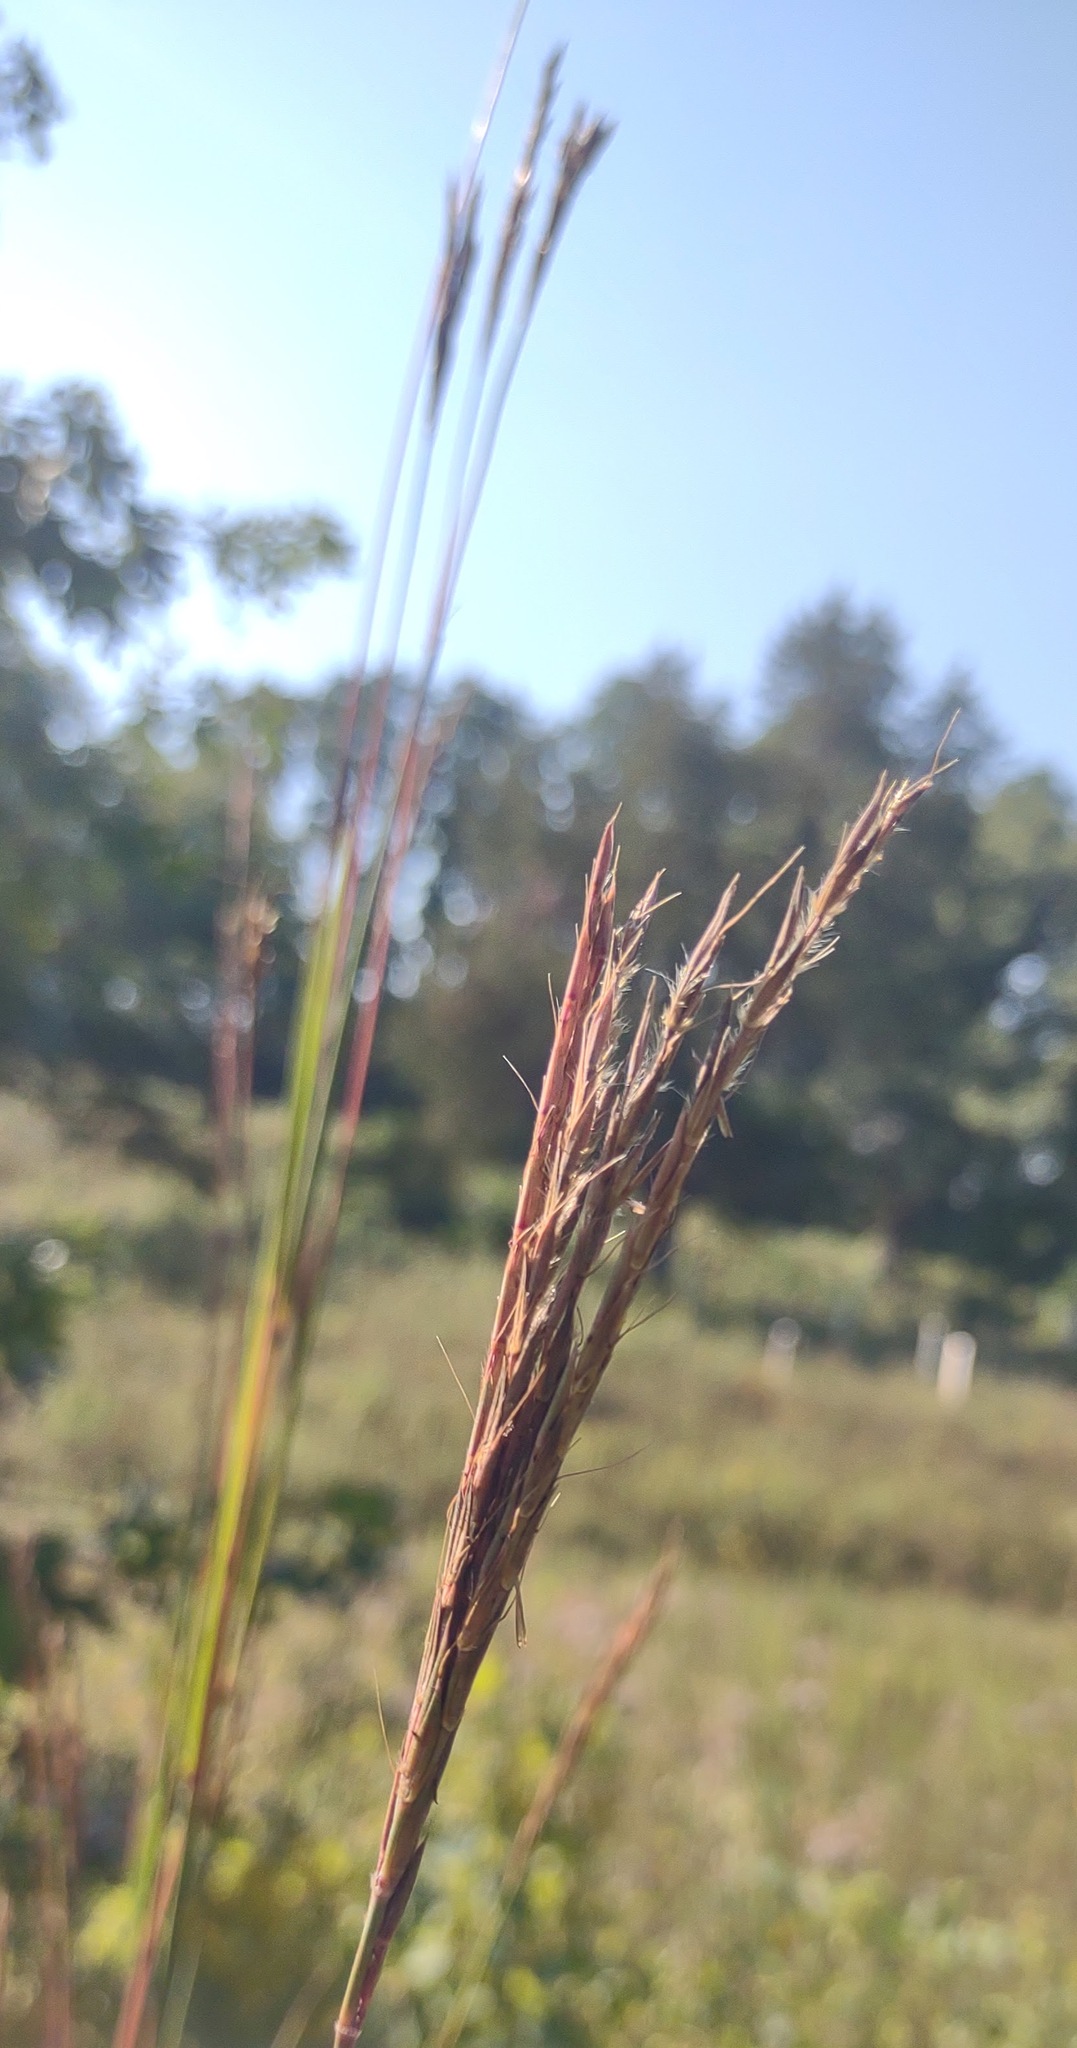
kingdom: Plantae
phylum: Tracheophyta
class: Liliopsida
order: Poales
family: Poaceae
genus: Andropogon
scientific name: Andropogon gerardi
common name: Big bluestem
